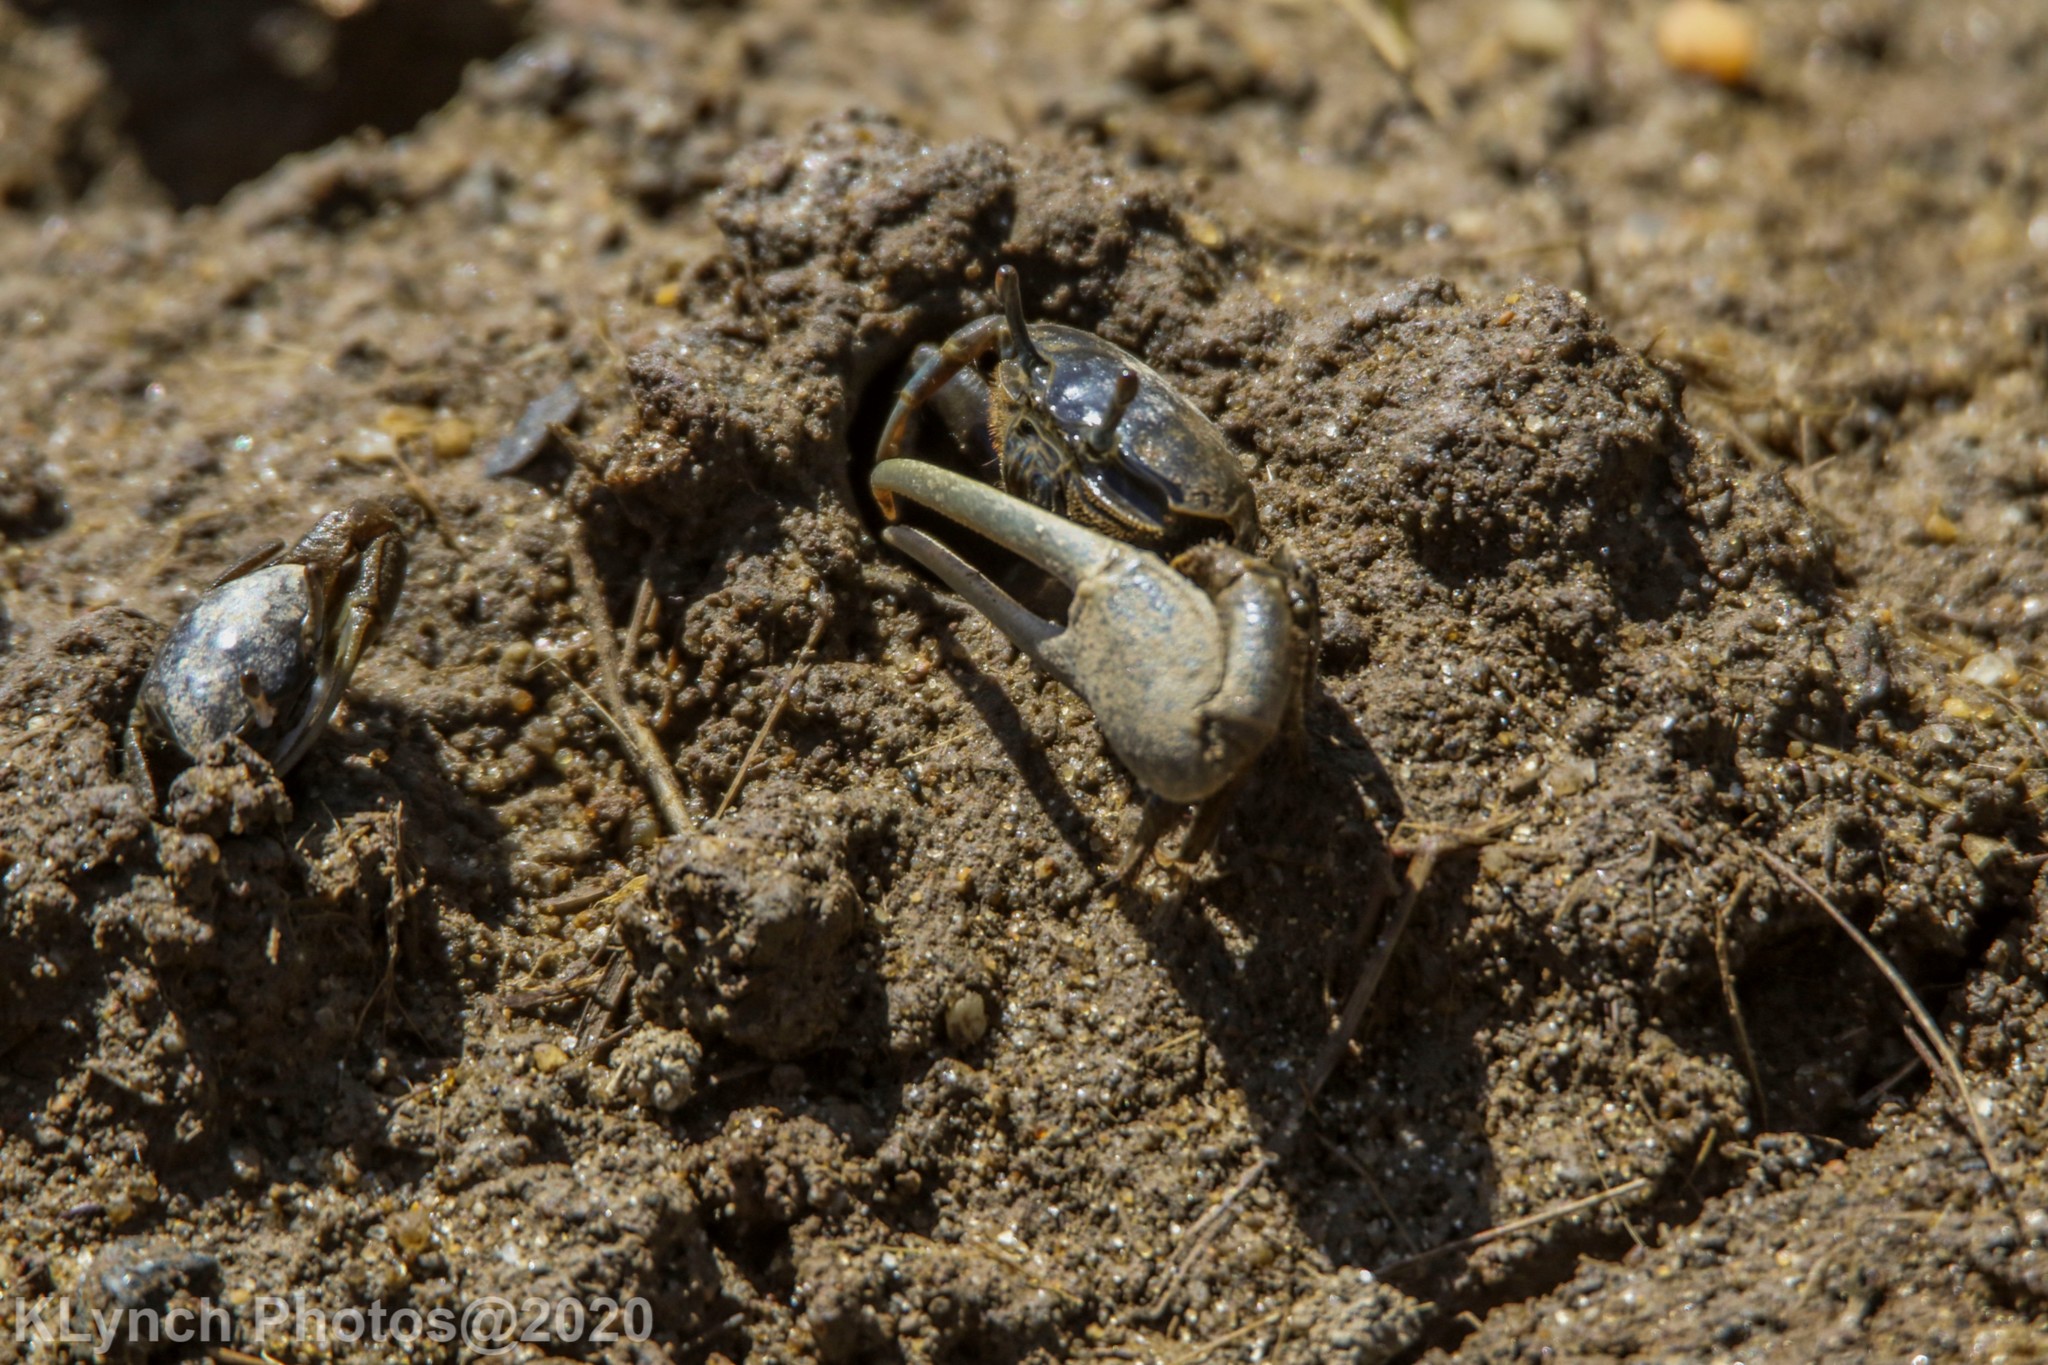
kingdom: Animalia
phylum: Arthropoda
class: Malacostraca
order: Decapoda
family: Ocypodidae
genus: Minuca
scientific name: Minuca pugnax
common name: Mud fiddler crab
